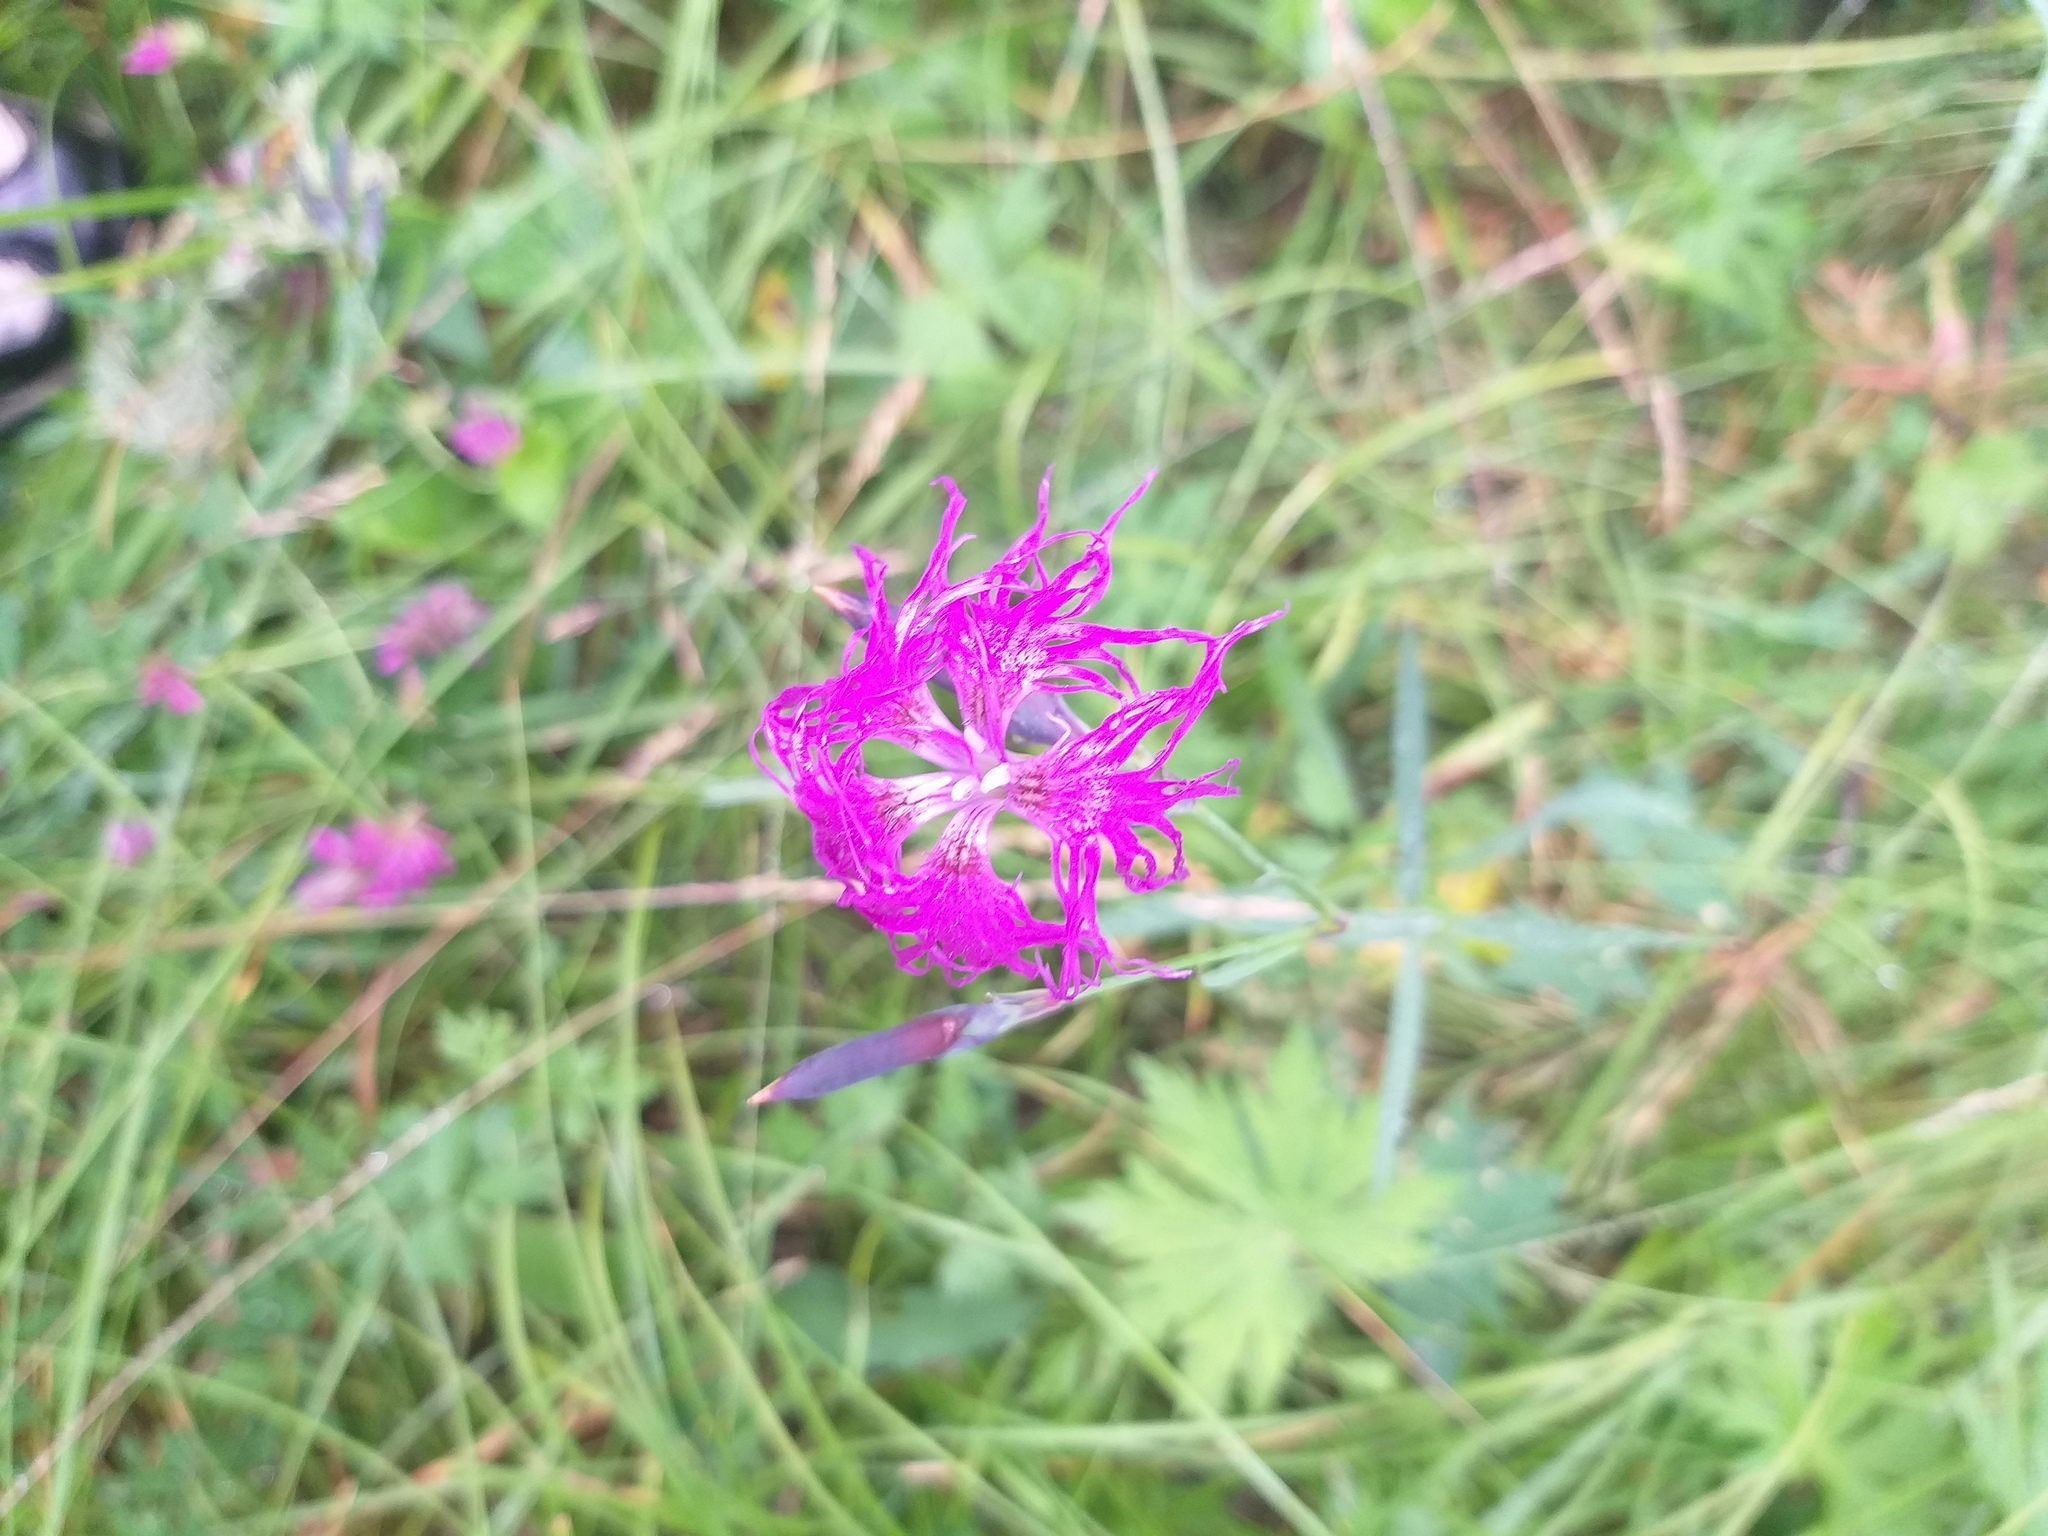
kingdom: Plantae
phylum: Tracheophyta
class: Magnoliopsida
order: Caryophyllales
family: Caryophyllaceae
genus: Dianthus
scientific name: Dianthus superbus
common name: Fringed pink
